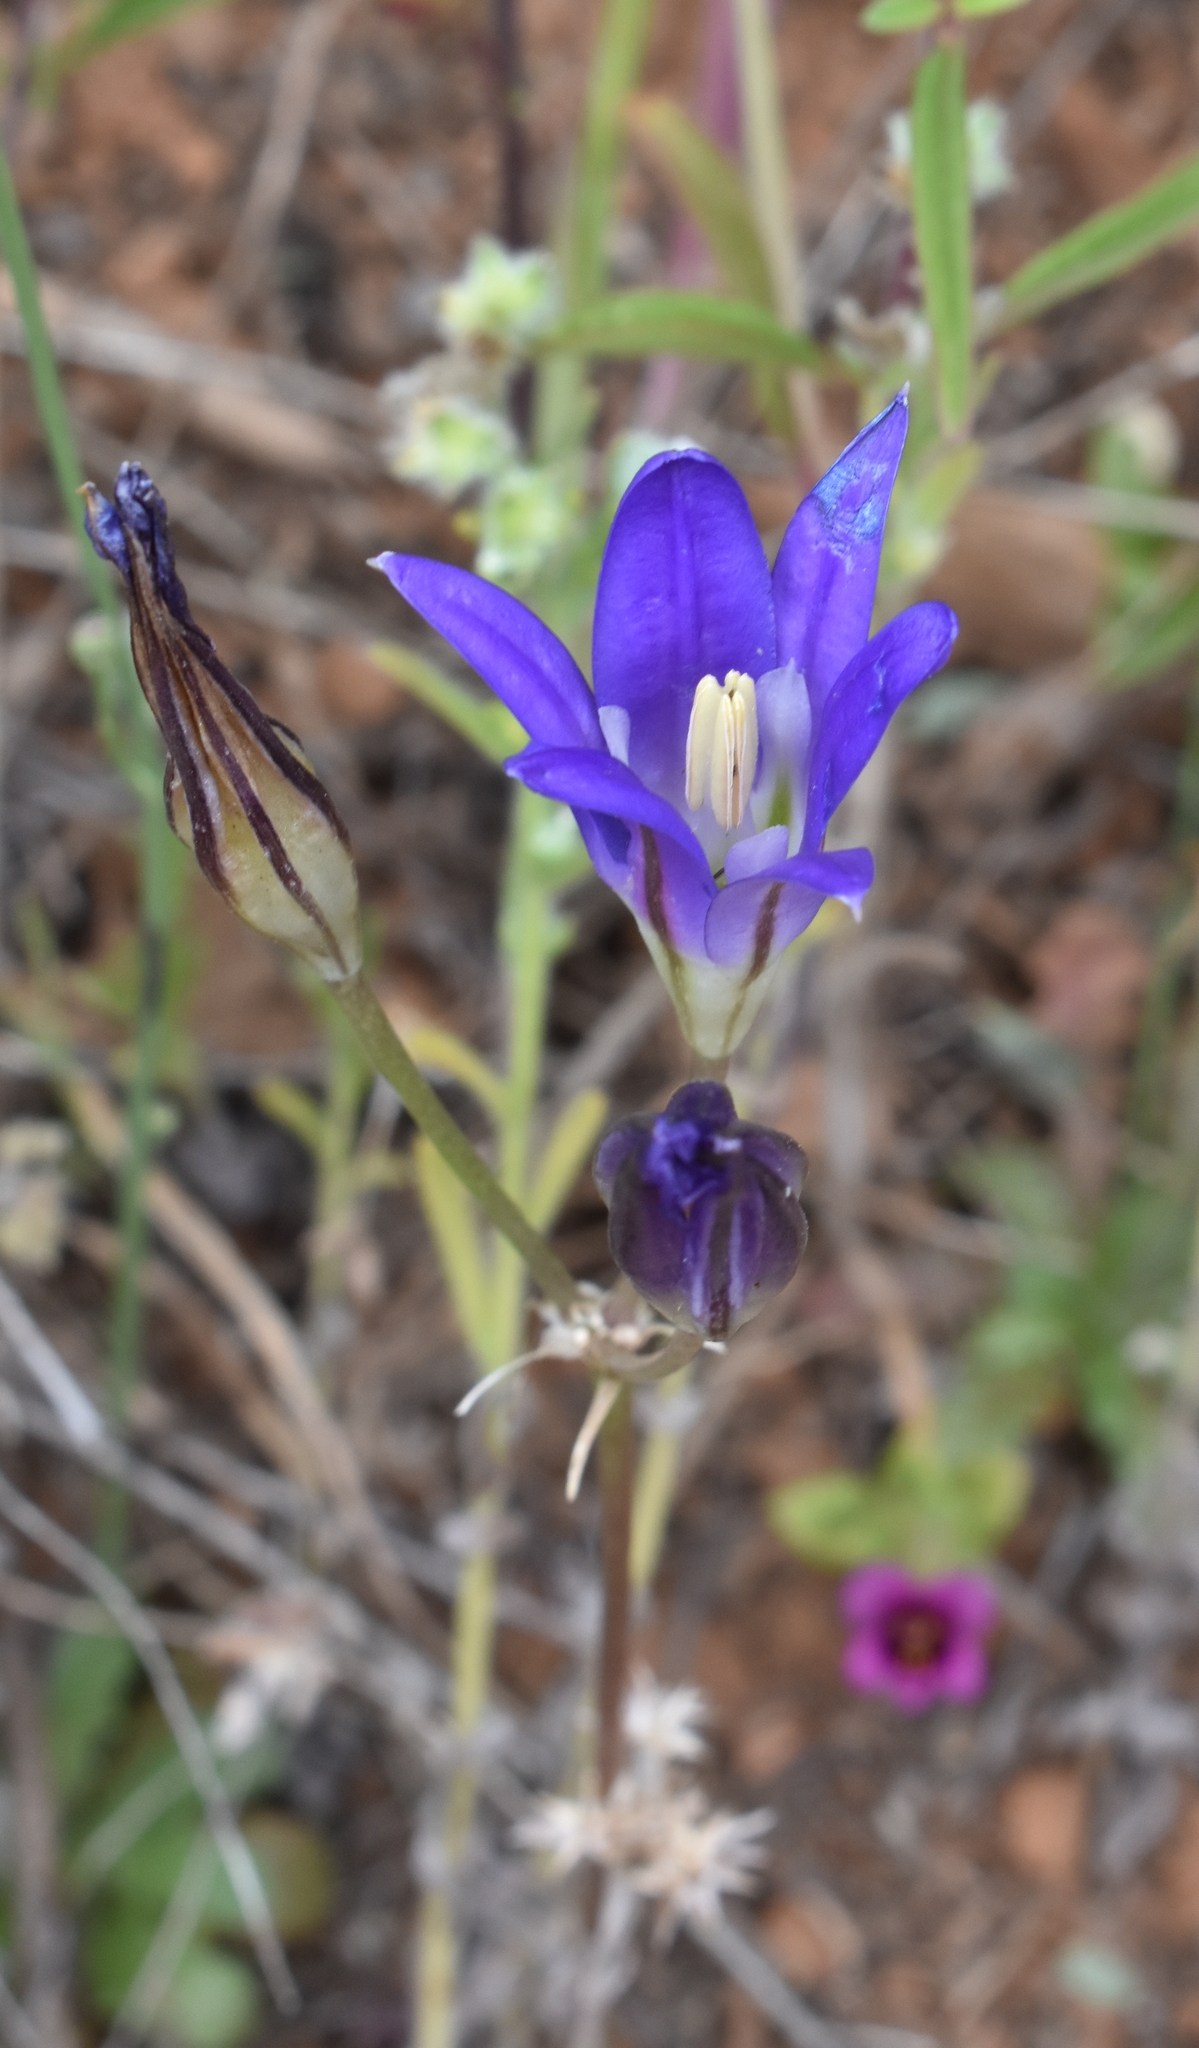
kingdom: Plantae
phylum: Tracheophyta
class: Liliopsida
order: Asparagales
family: Asparagaceae
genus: Brodiaea
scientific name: Brodiaea elegans
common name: Elegant cluster-lily
